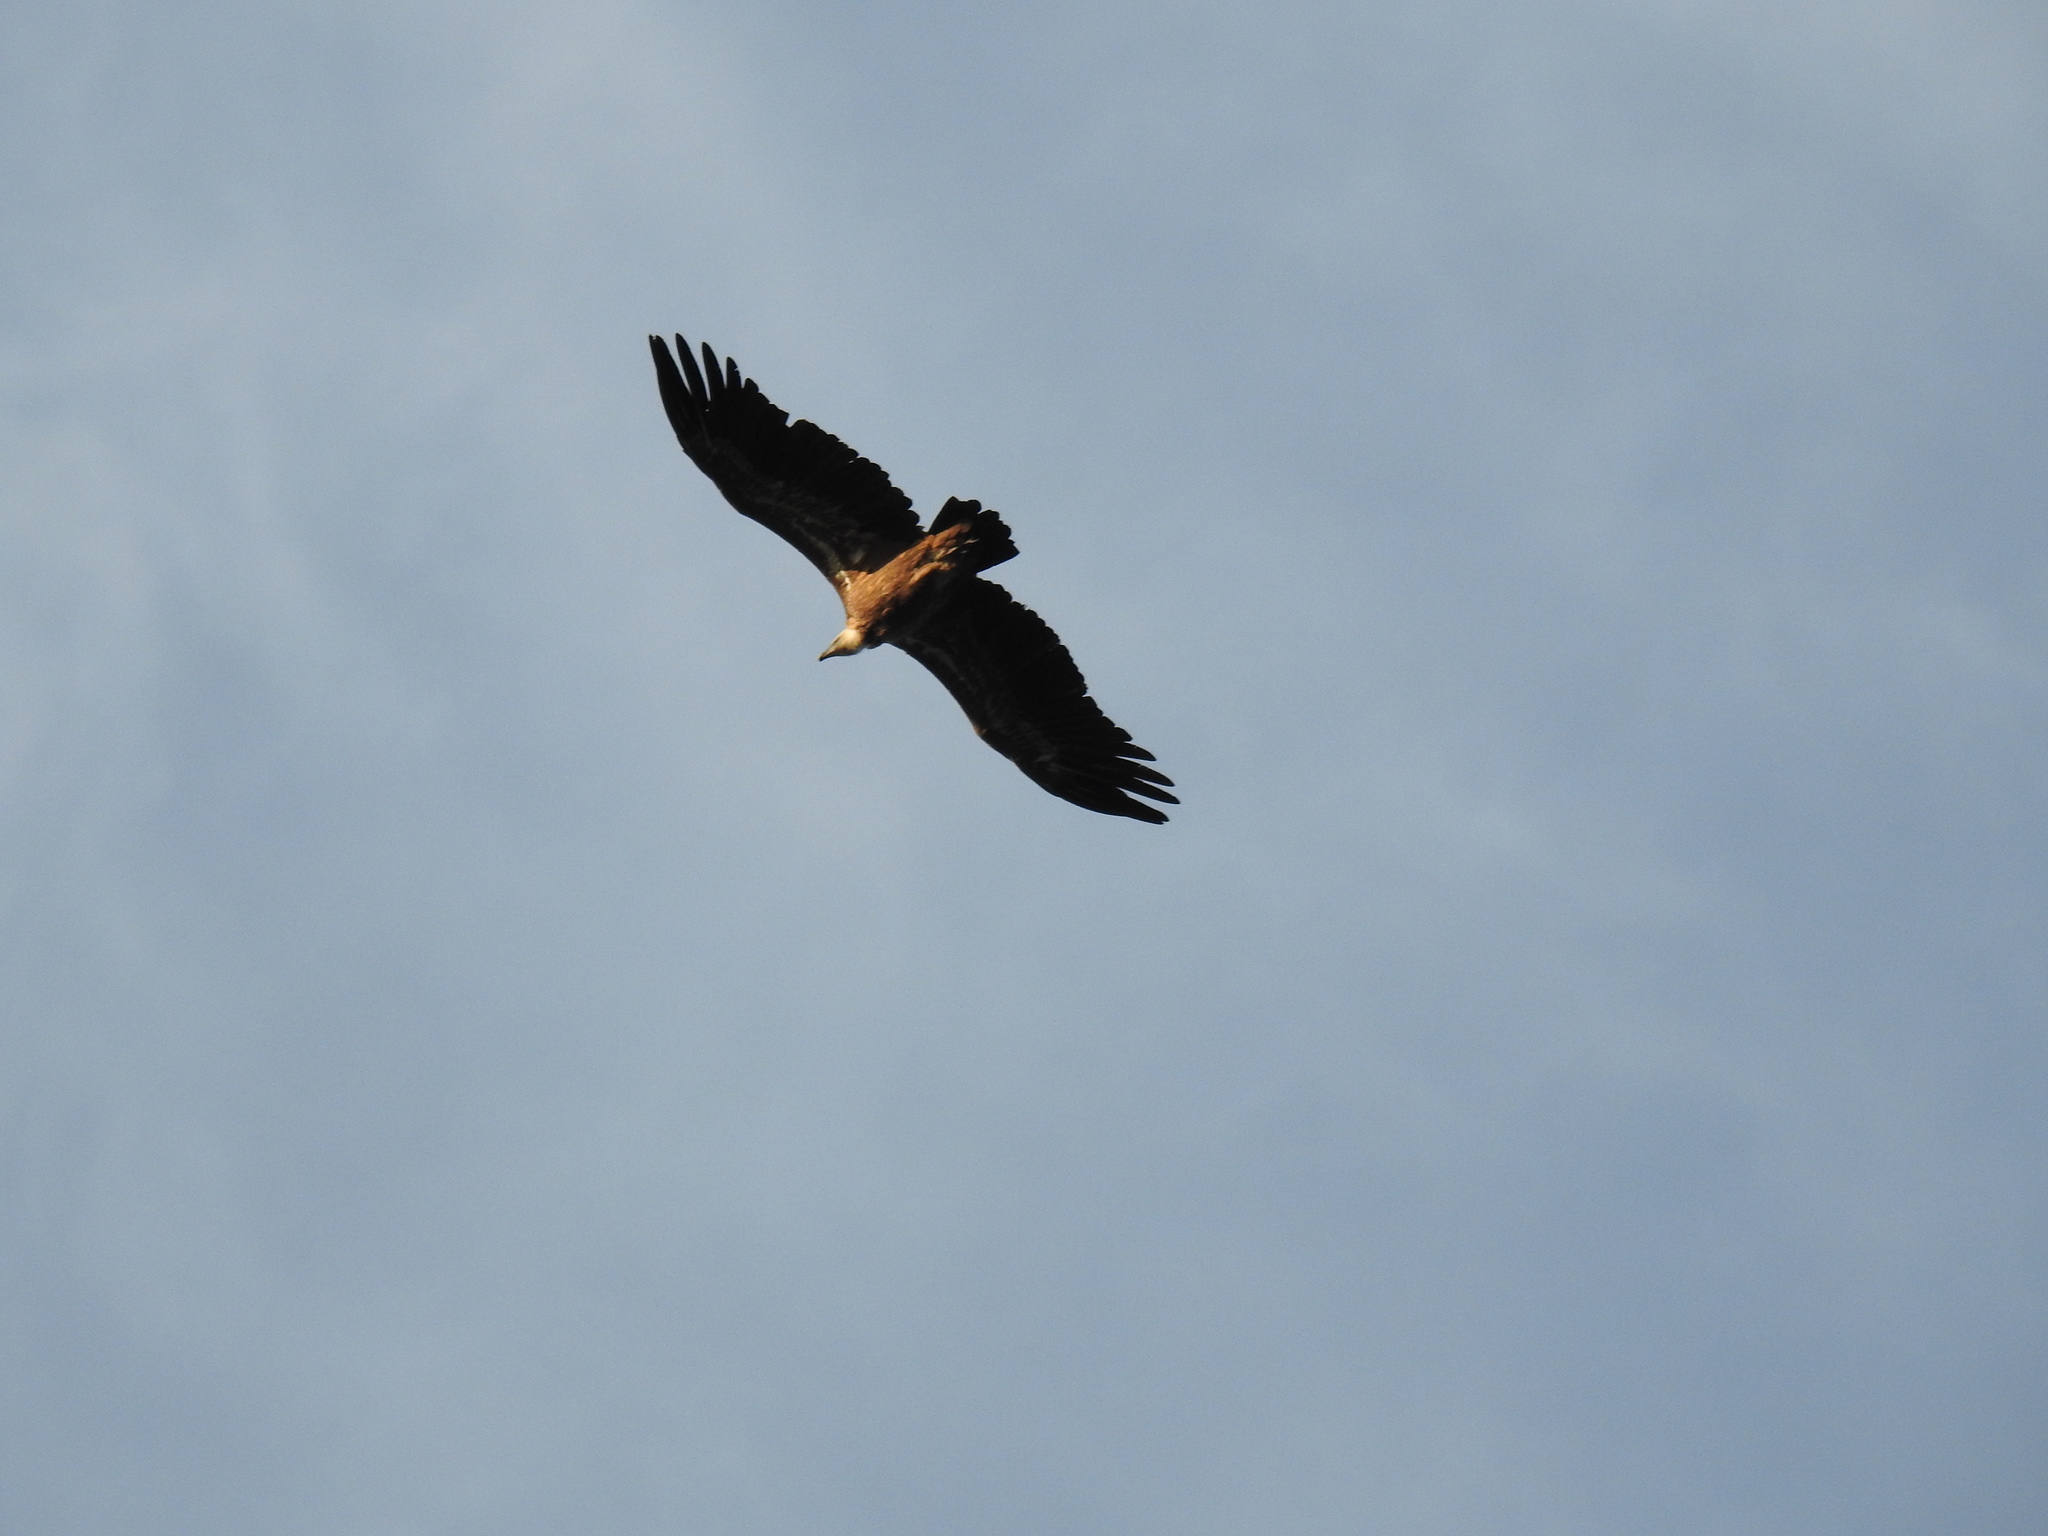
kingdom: Animalia
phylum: Chordata
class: Aves
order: Accipitriformes
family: Accipitridae
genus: Gyps
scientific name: Gyps fulvus
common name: Griffon vulture
